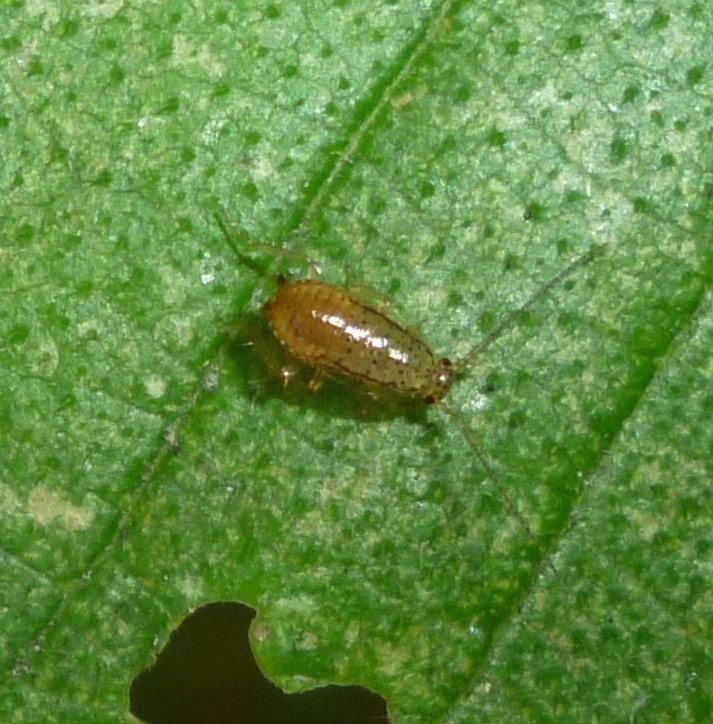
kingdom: Animalia
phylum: Arthropoda
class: Insecta
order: Blattodea
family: Ectobiidae
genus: Ectobius
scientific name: Ectobius pallidus
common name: Tawny cockroach
